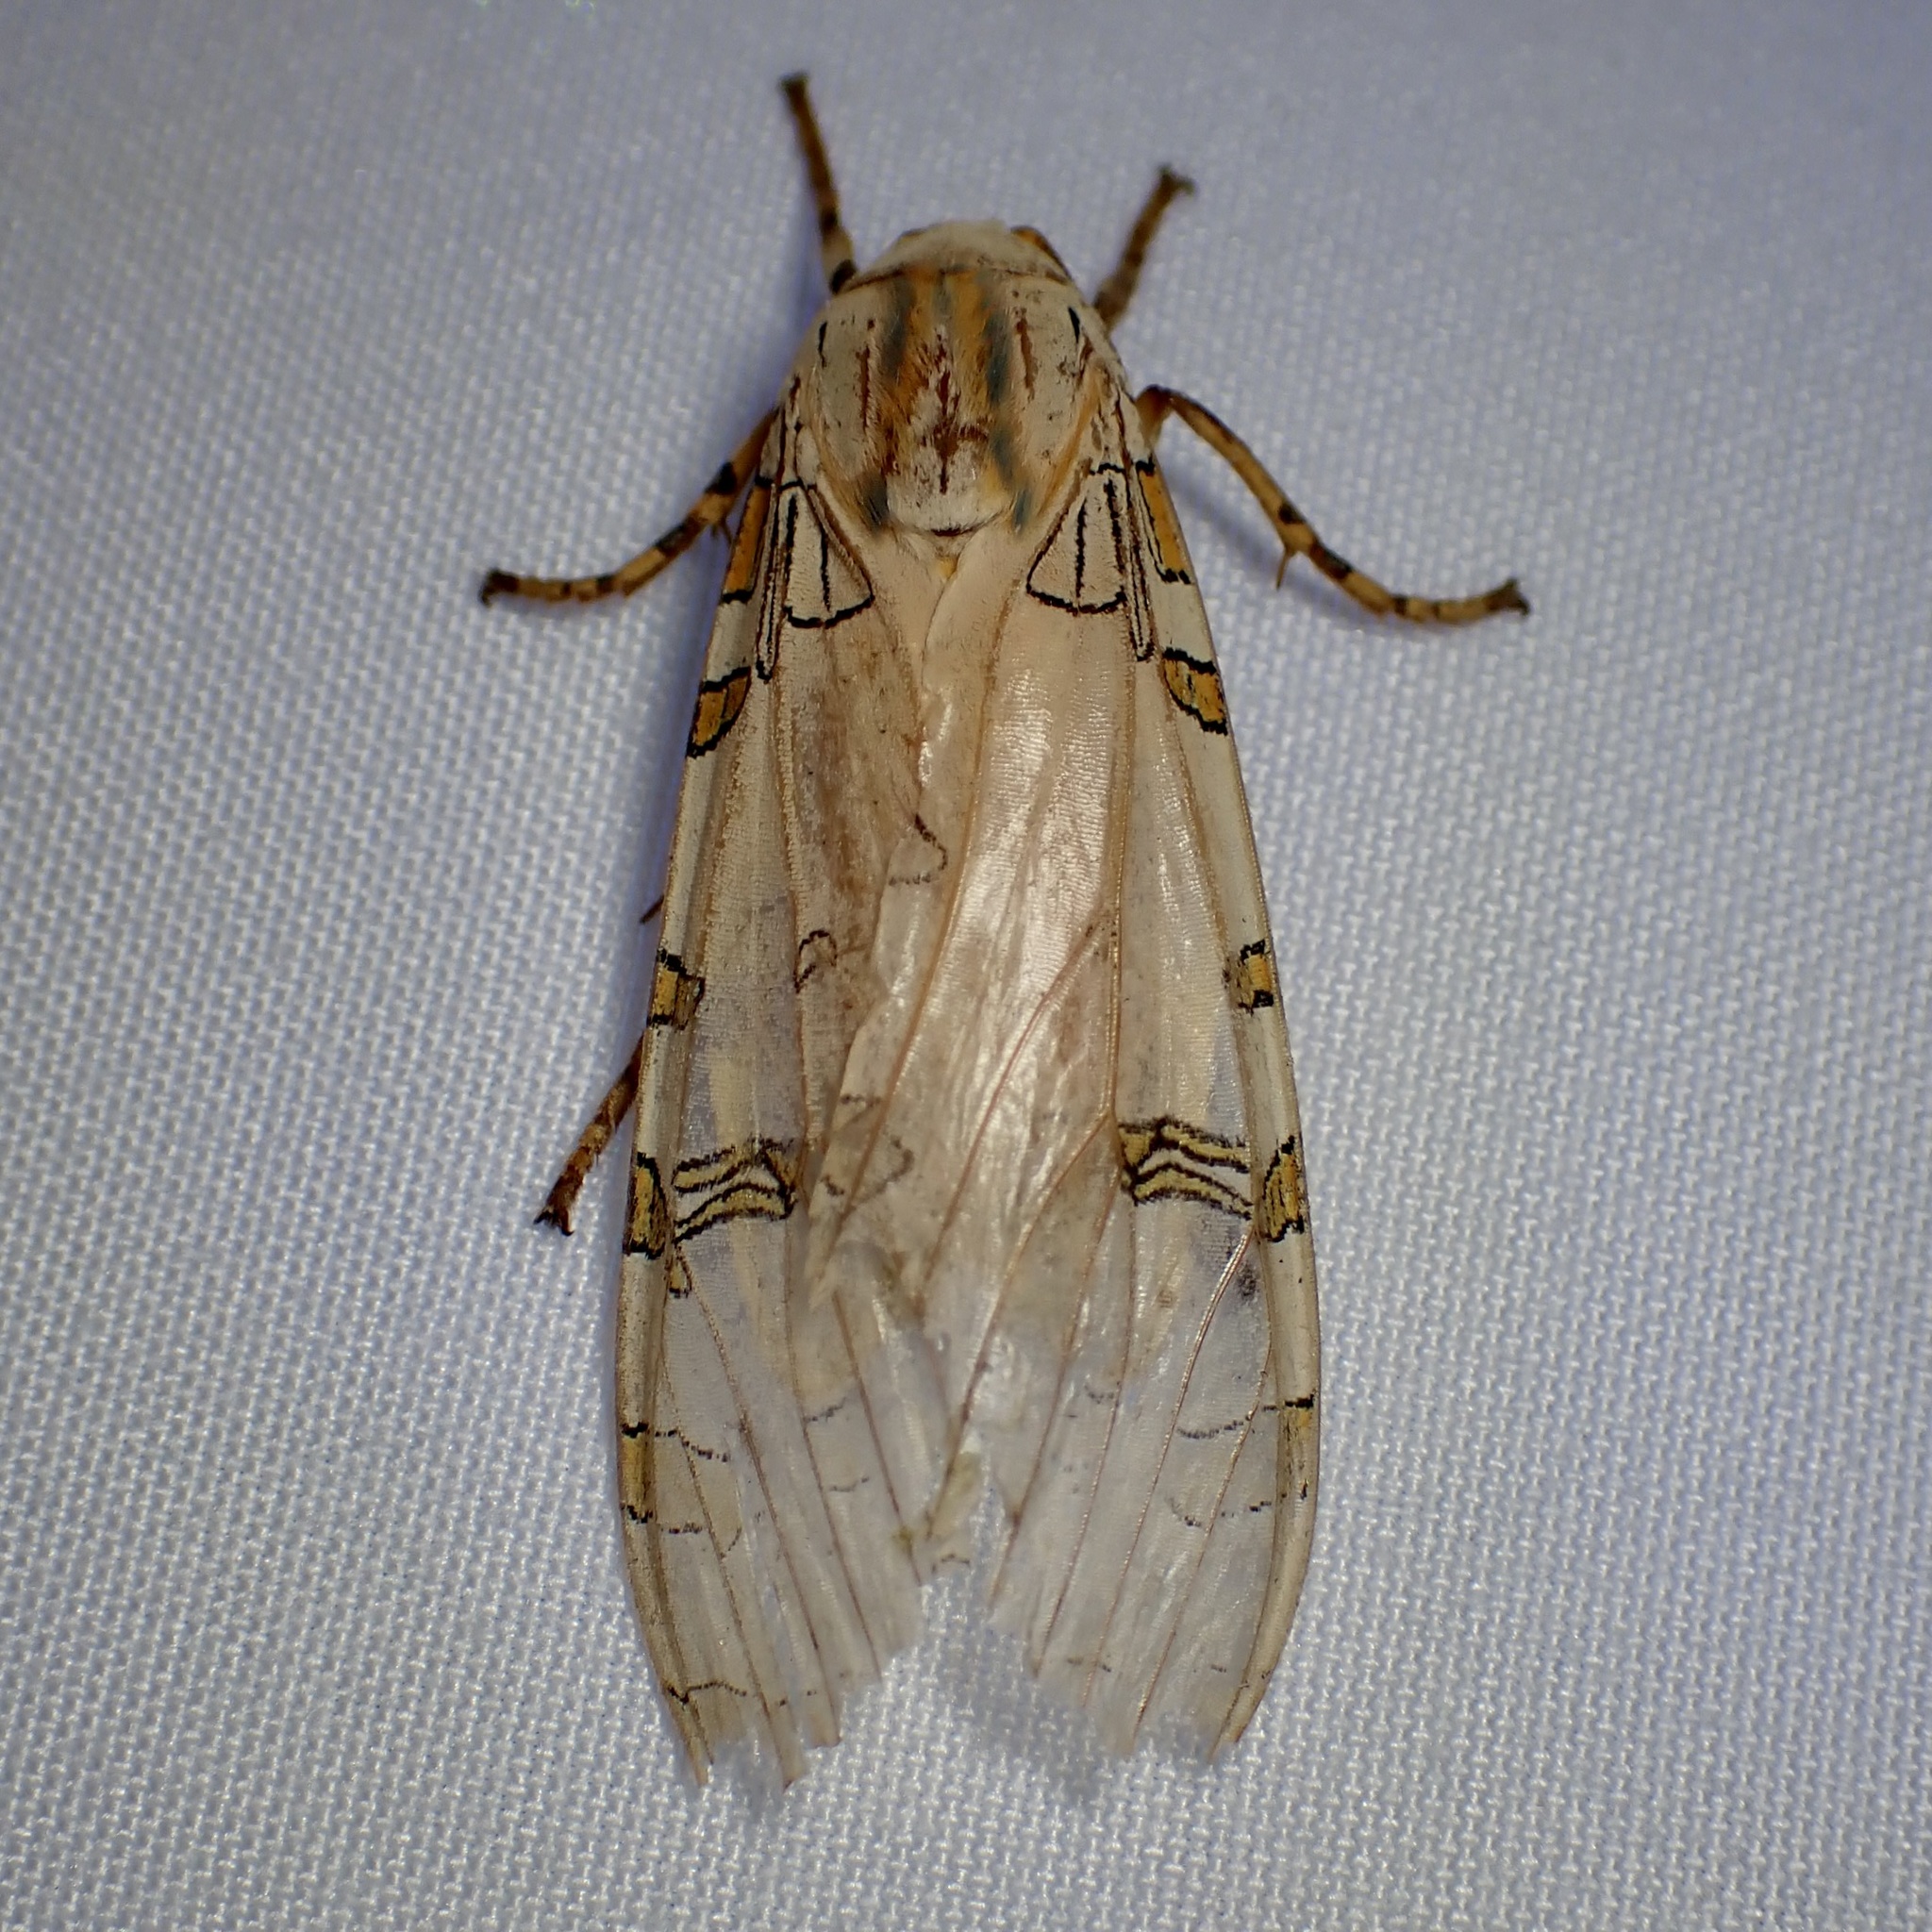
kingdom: Animalia
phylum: Arthropoda
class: Insecta
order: Lepidoptera
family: Erebidae
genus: Halysidota
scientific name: Halysidota davisii
